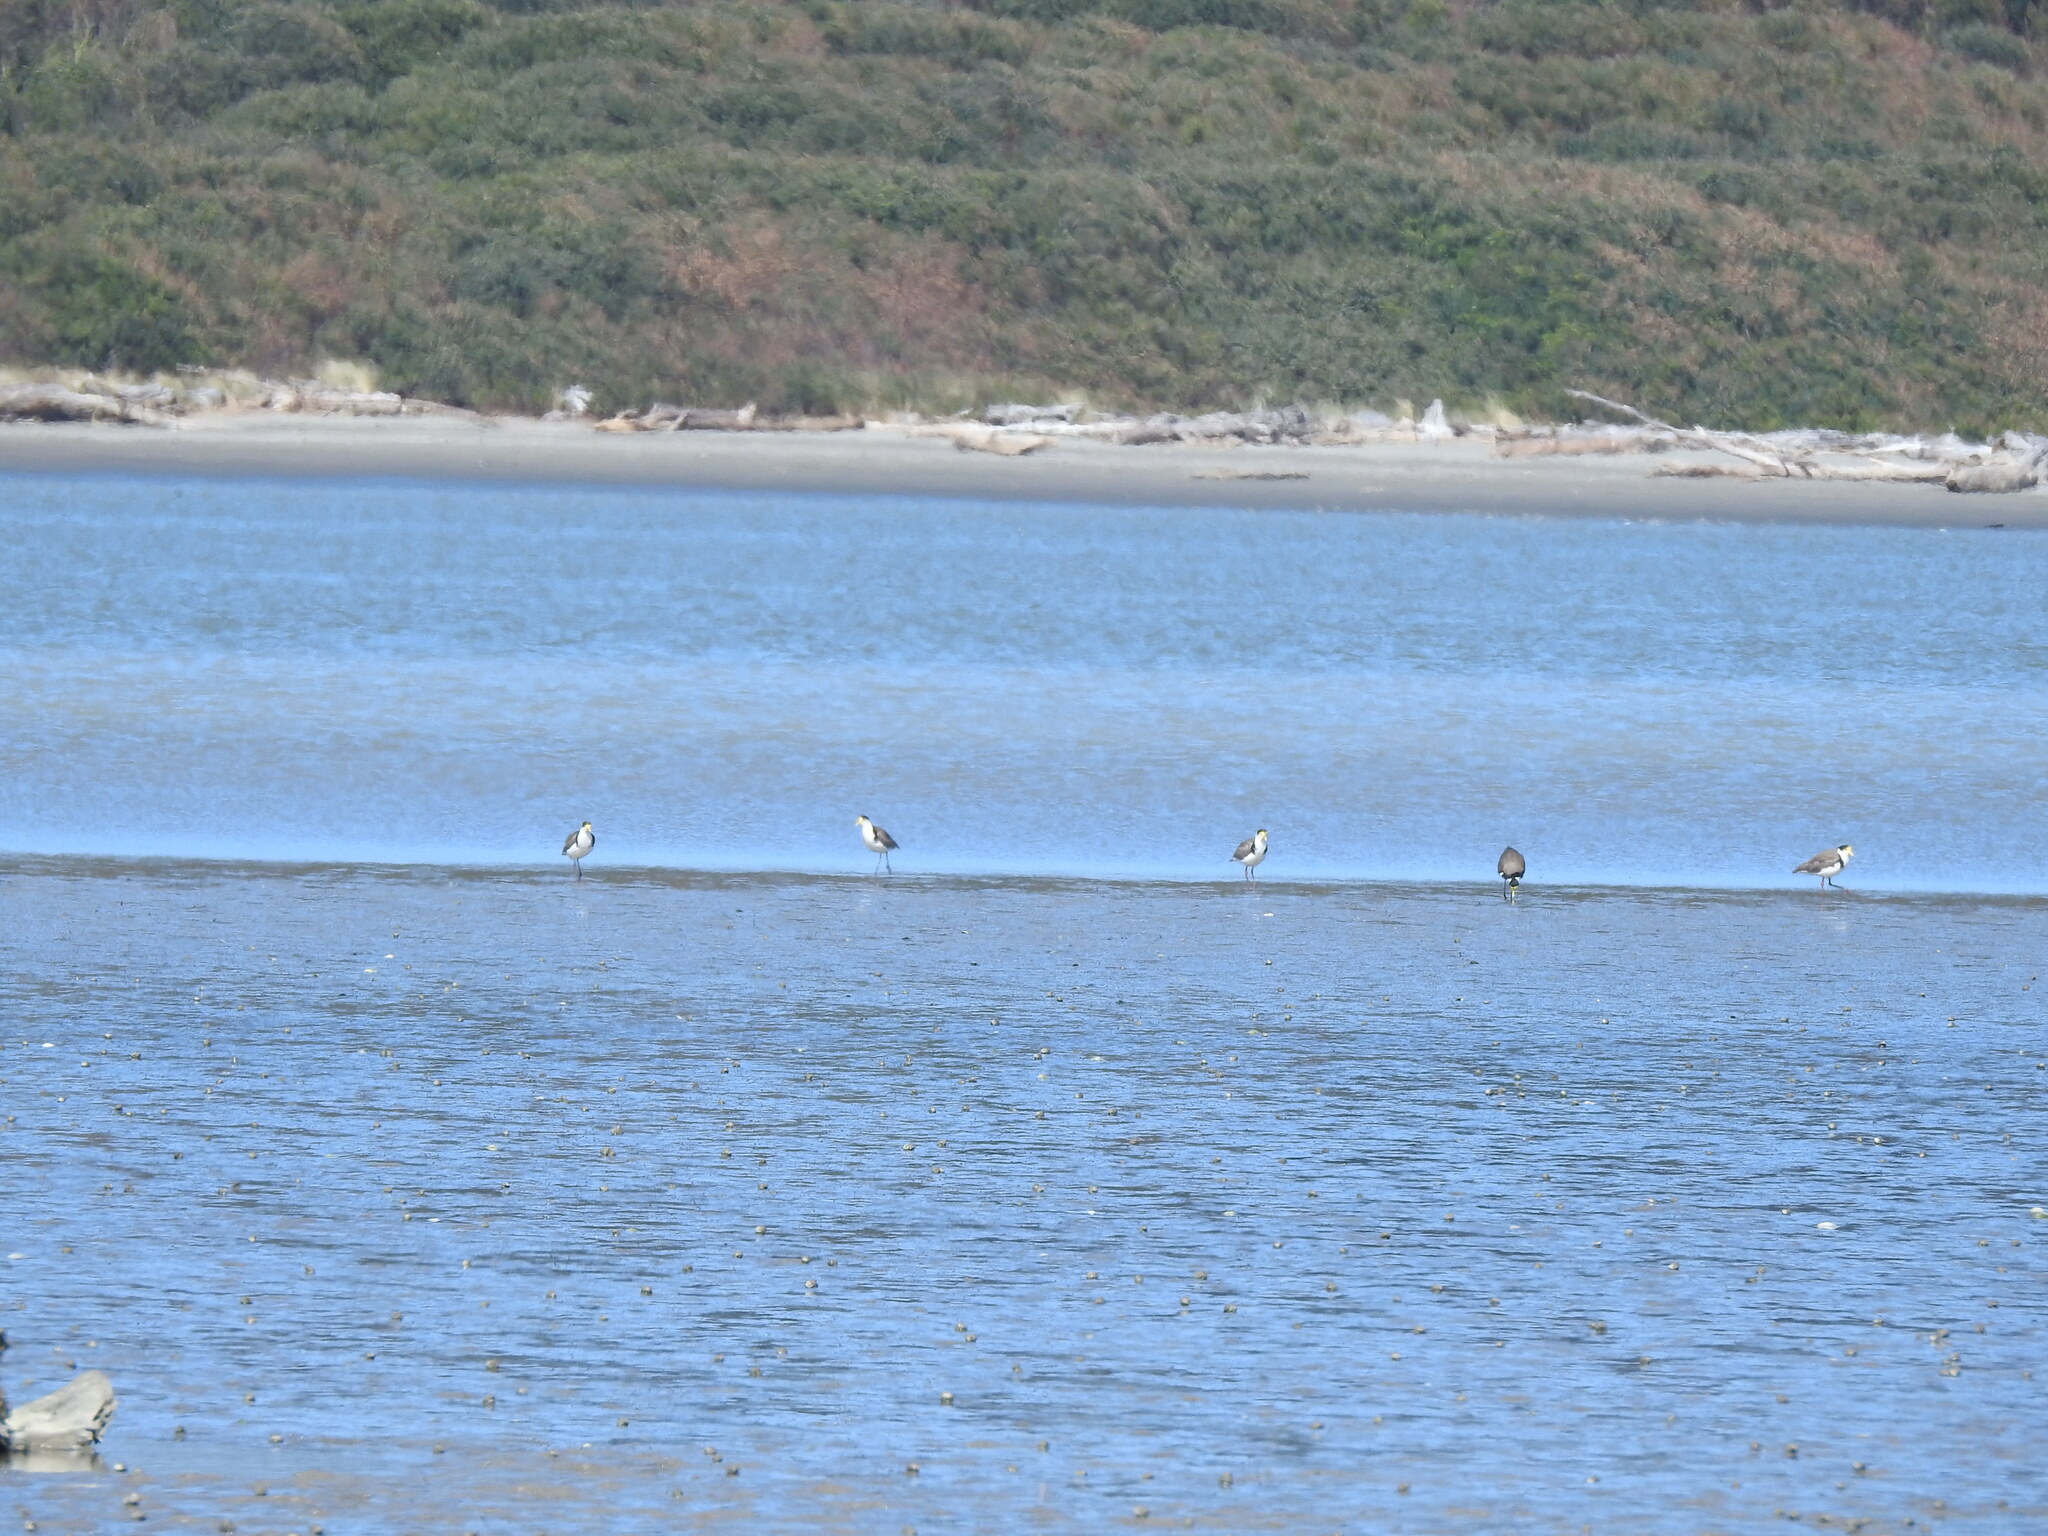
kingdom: Animalia
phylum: Chordata
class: Aves
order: Charadriiformes
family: Charadriidae
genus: Vanellus
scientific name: Vanellus miles
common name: Masked lapwing
